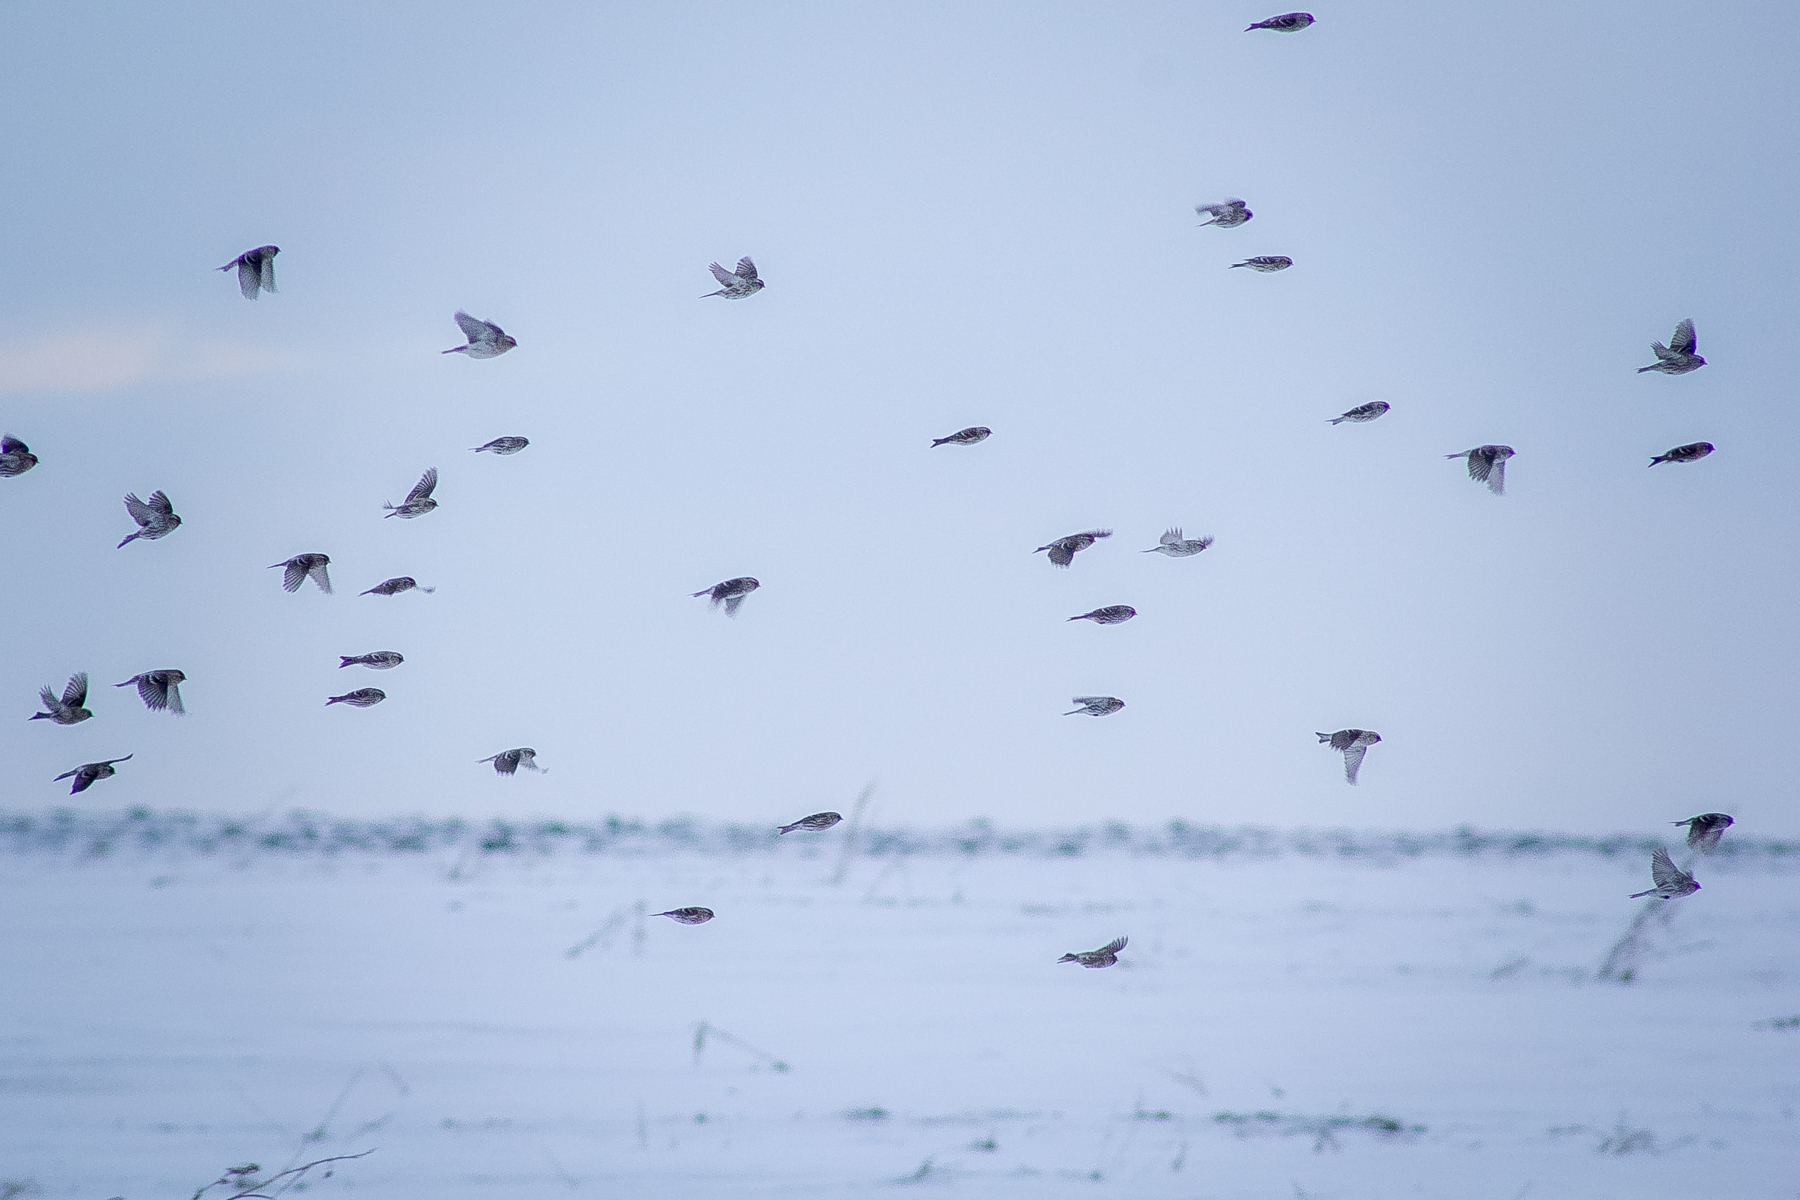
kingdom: Animalia
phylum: Chordata
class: Aves
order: Passeriformes
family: Fringillidae
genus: Acanthis
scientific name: Acanthis flammea
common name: Common redpoll
